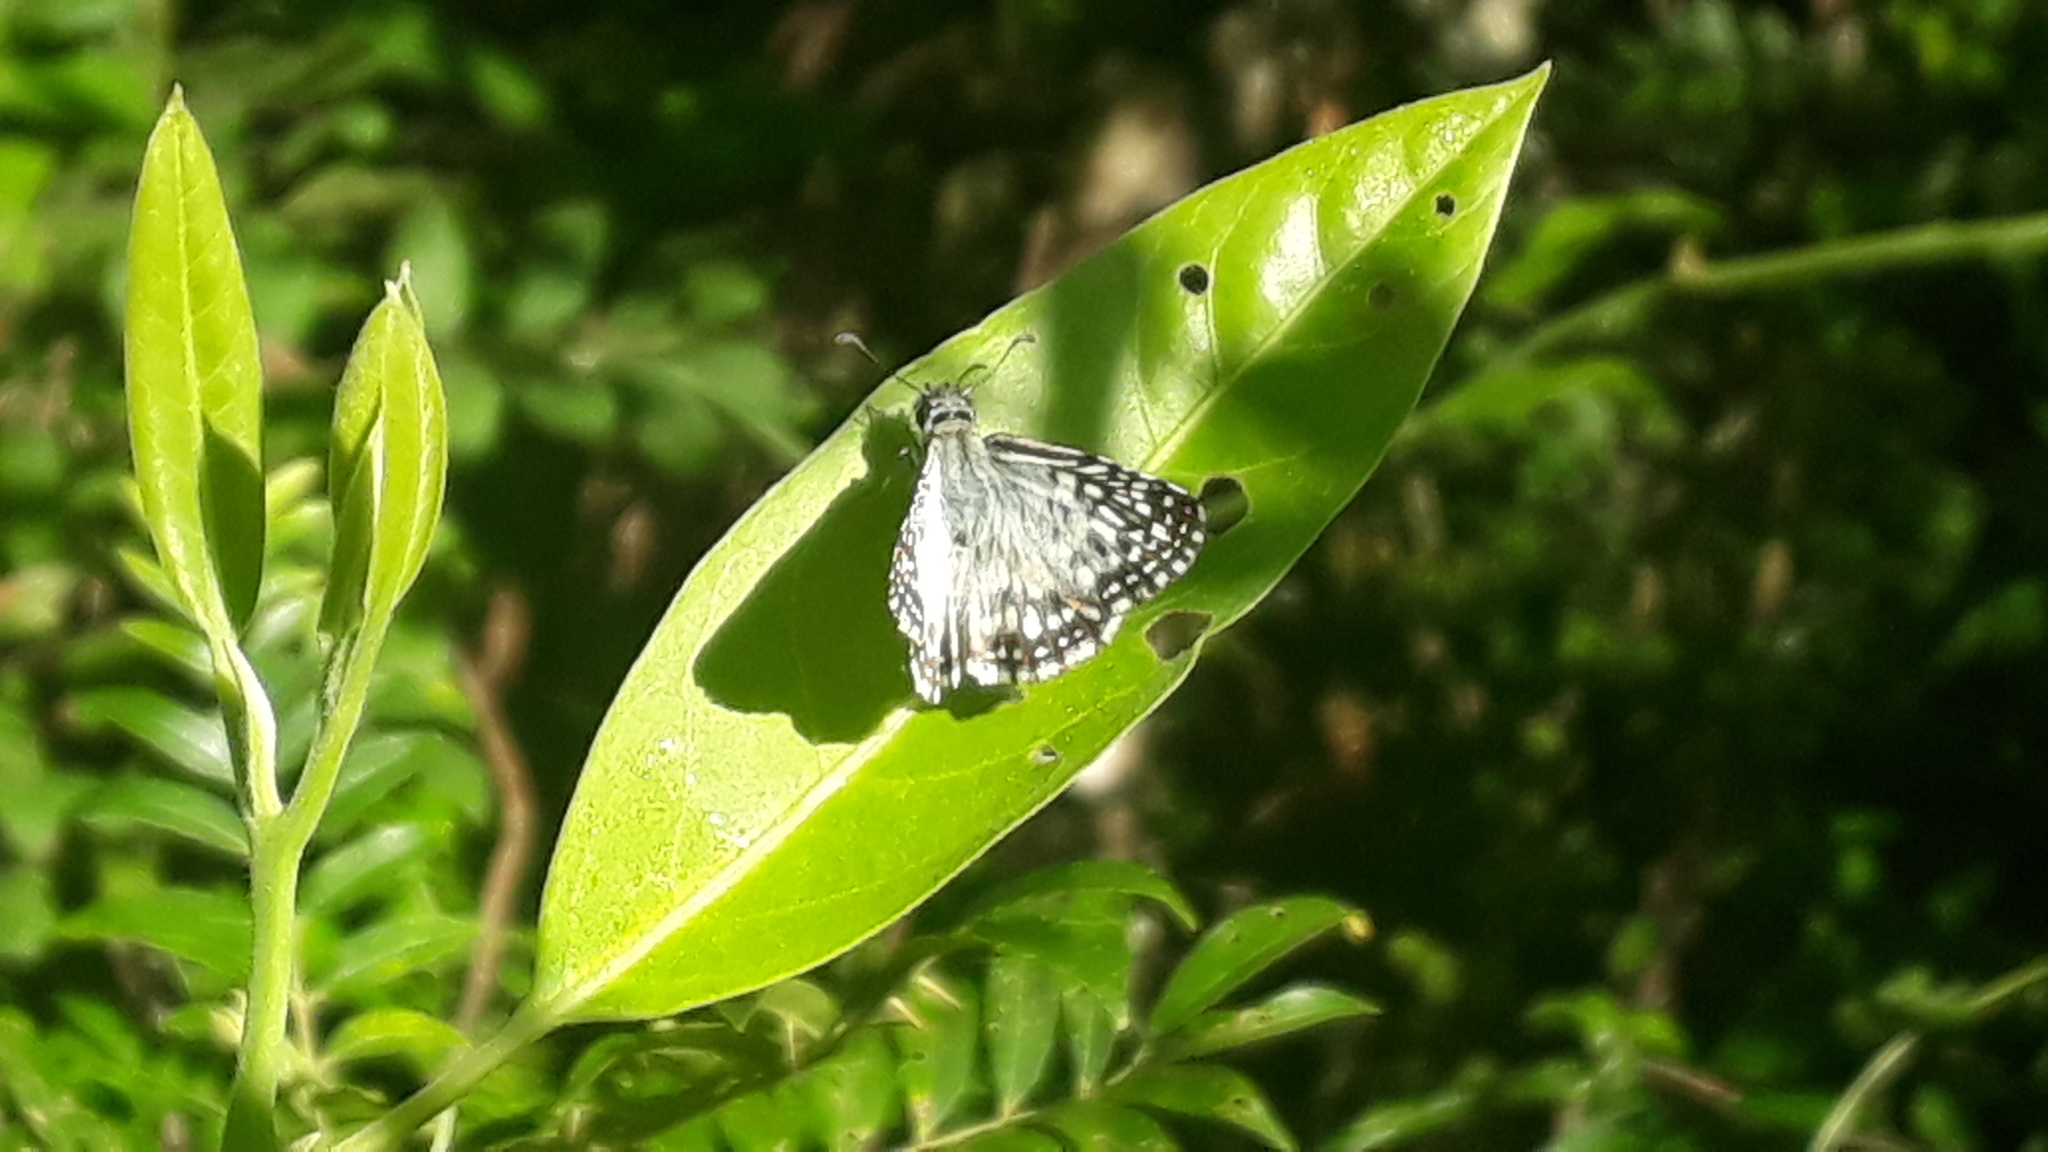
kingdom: Animalia
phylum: Arthropoda
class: Insecta
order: Lepidoptera
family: Hesperiidae
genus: Pyrgus
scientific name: Pyrgus oileus
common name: Tropical checkered-skipper
